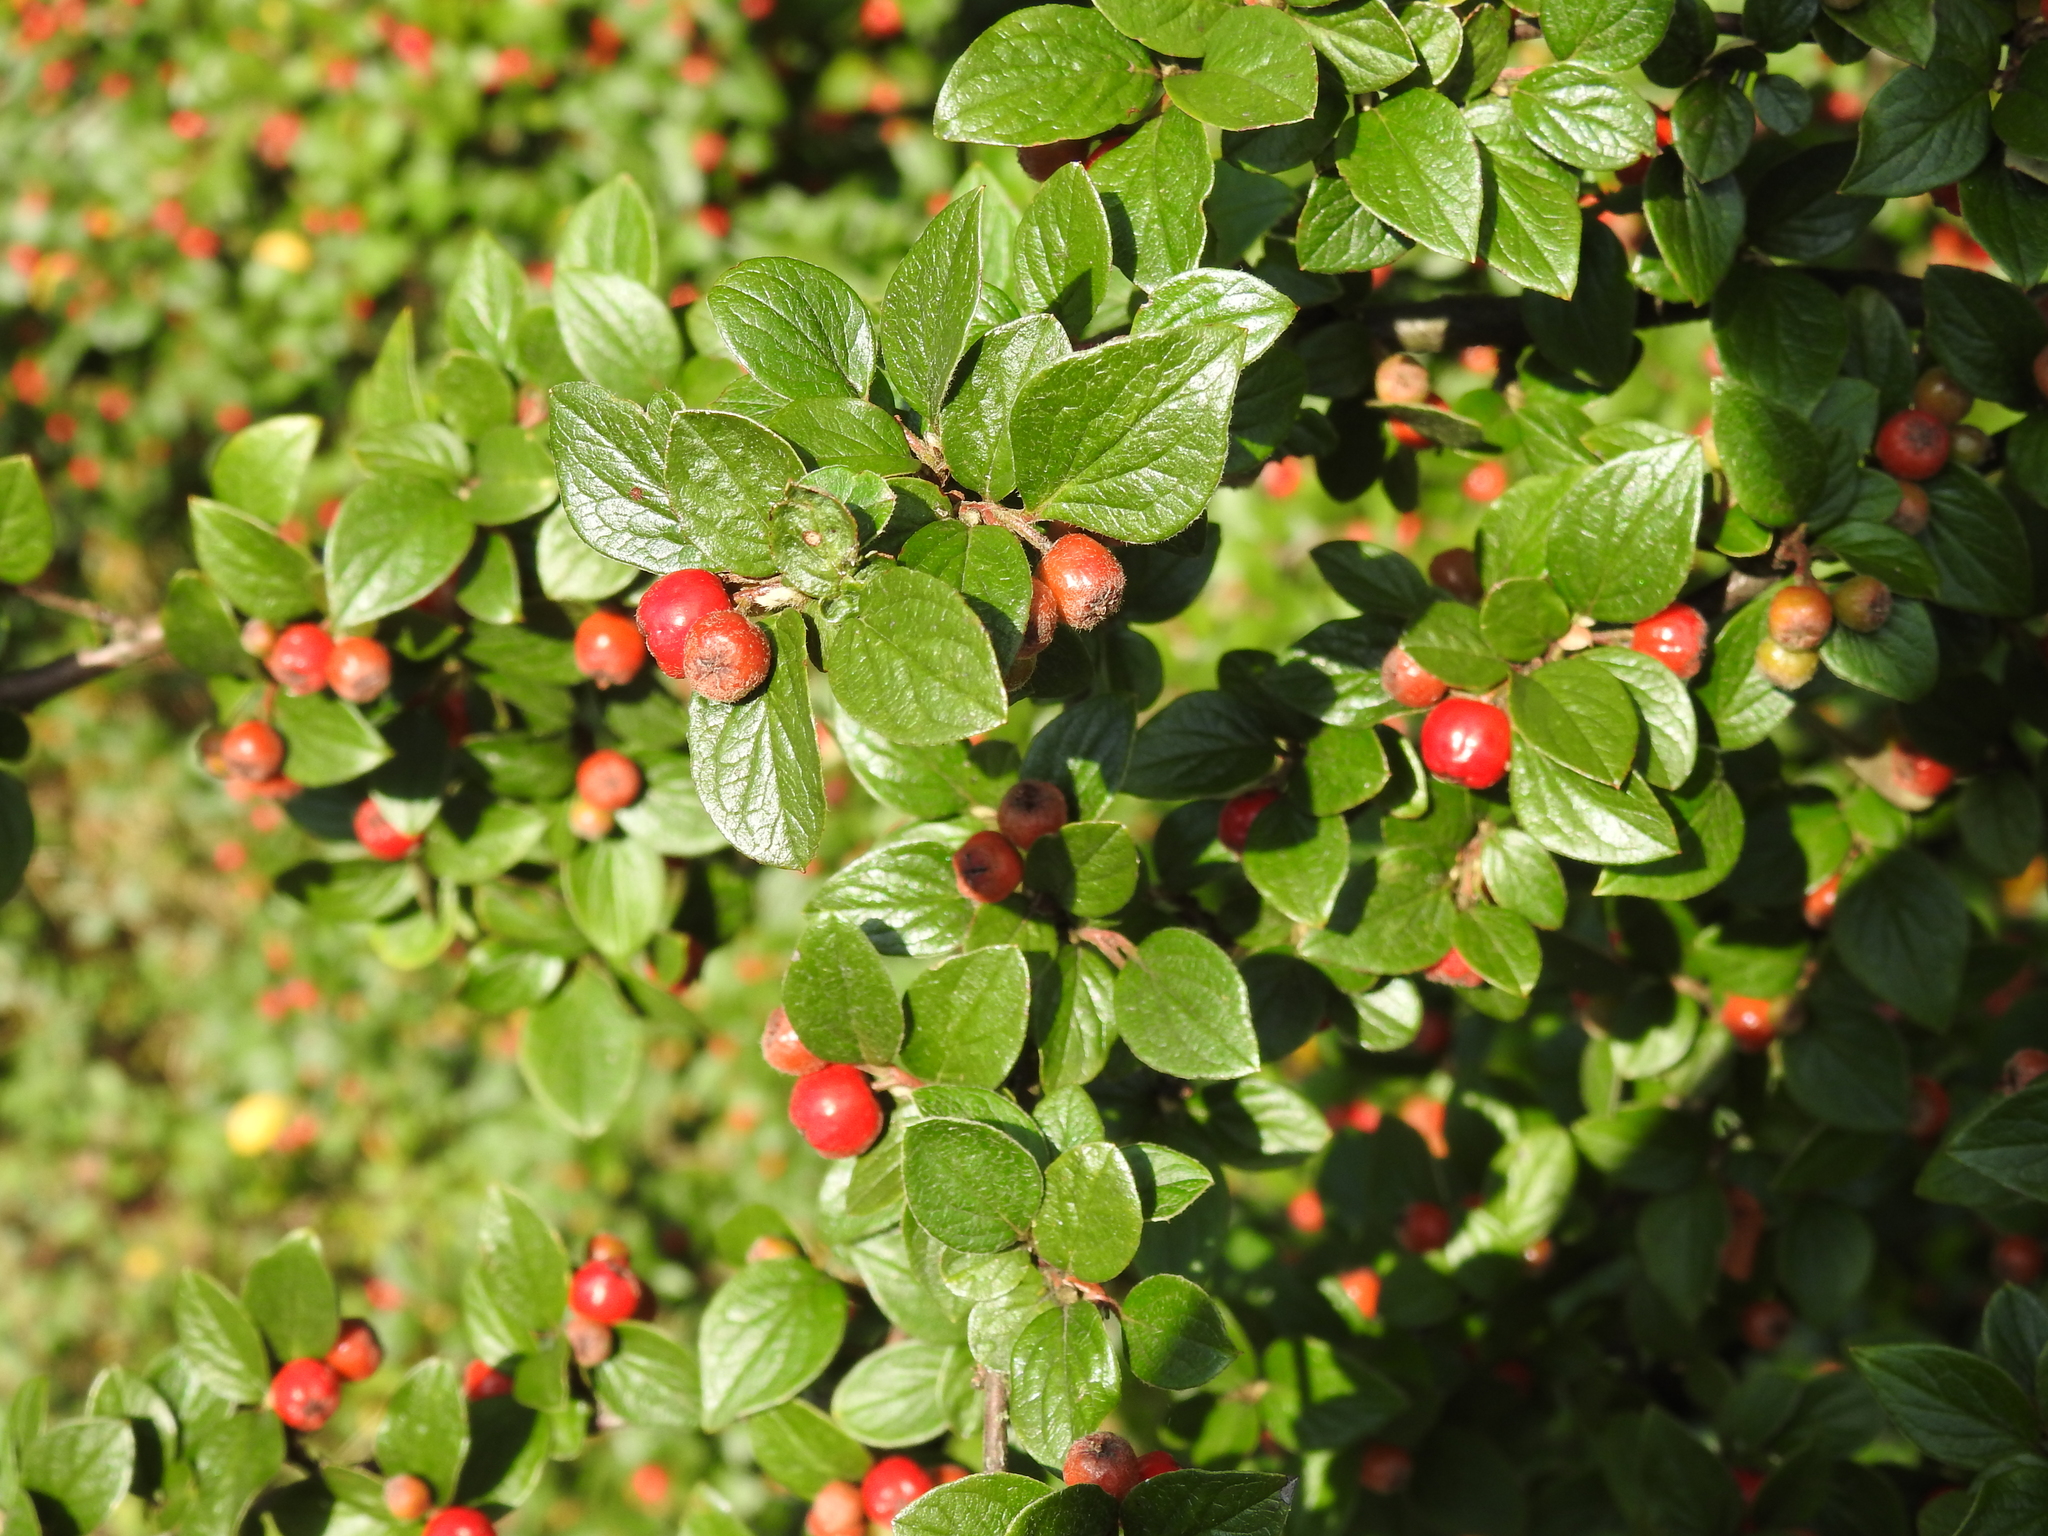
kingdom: Plantae
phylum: Tracheophyta
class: Magnoliopsida
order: Rosales
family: Rosaceae
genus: Cotoneaster
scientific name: Cotoneaster dielsianus
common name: Diels's cotoneaster
